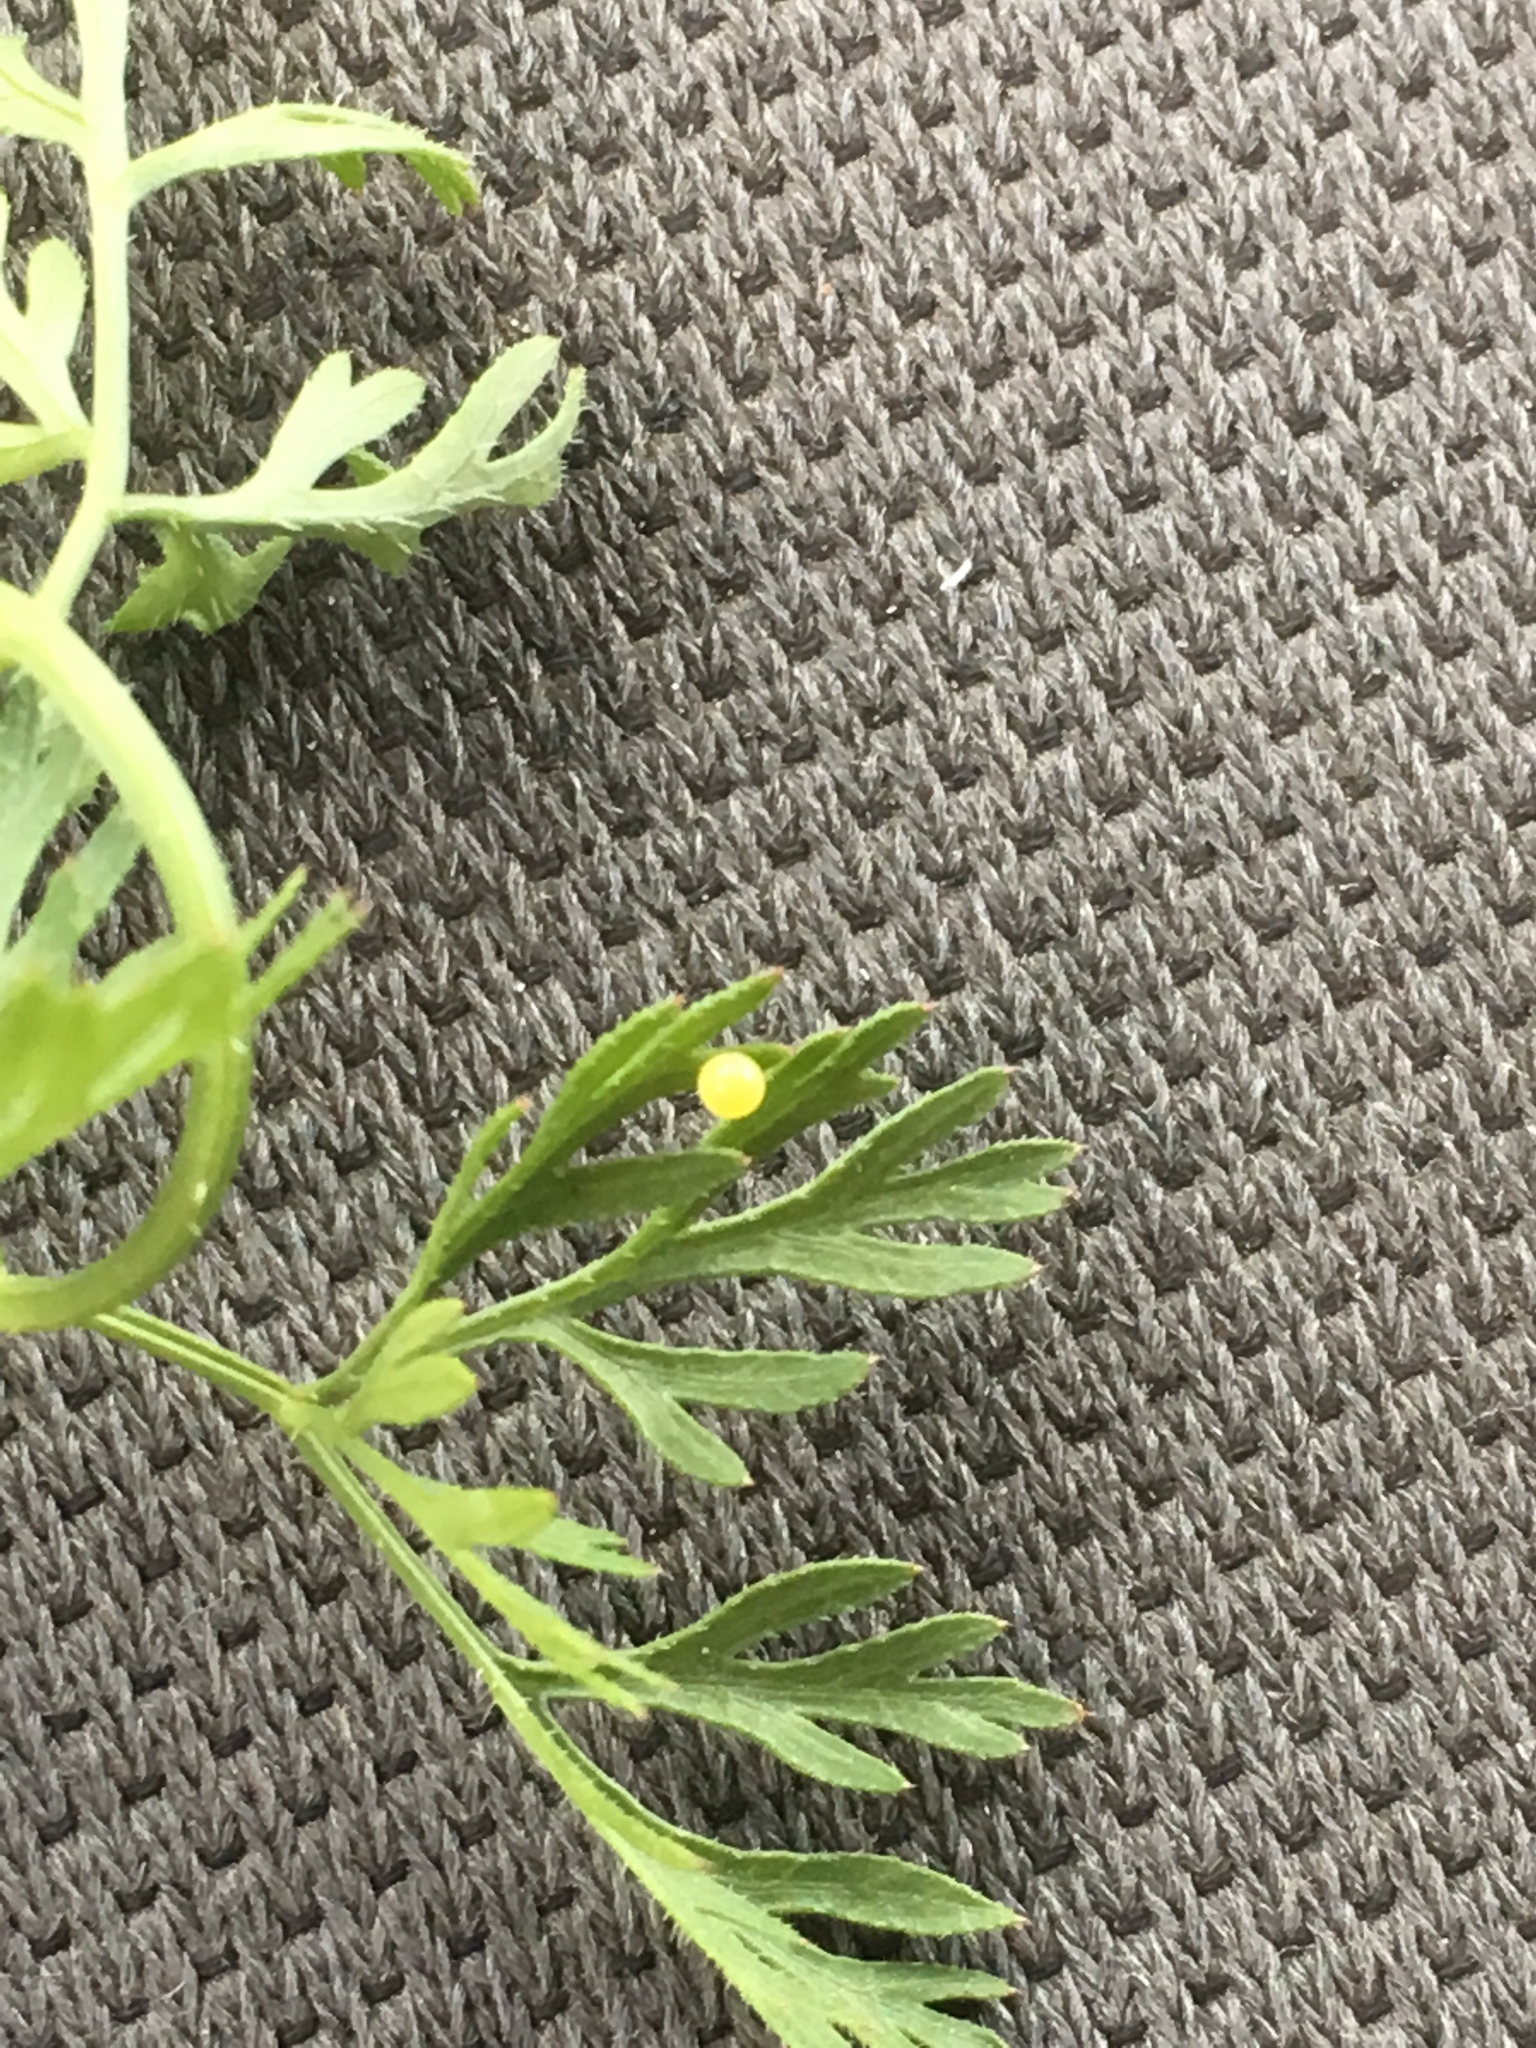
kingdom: Animalia
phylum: Arthropoda
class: Insecta
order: Lepidoptera
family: Papilionidae
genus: Papilio
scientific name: Papilio polyxenes
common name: Black swallowtail
